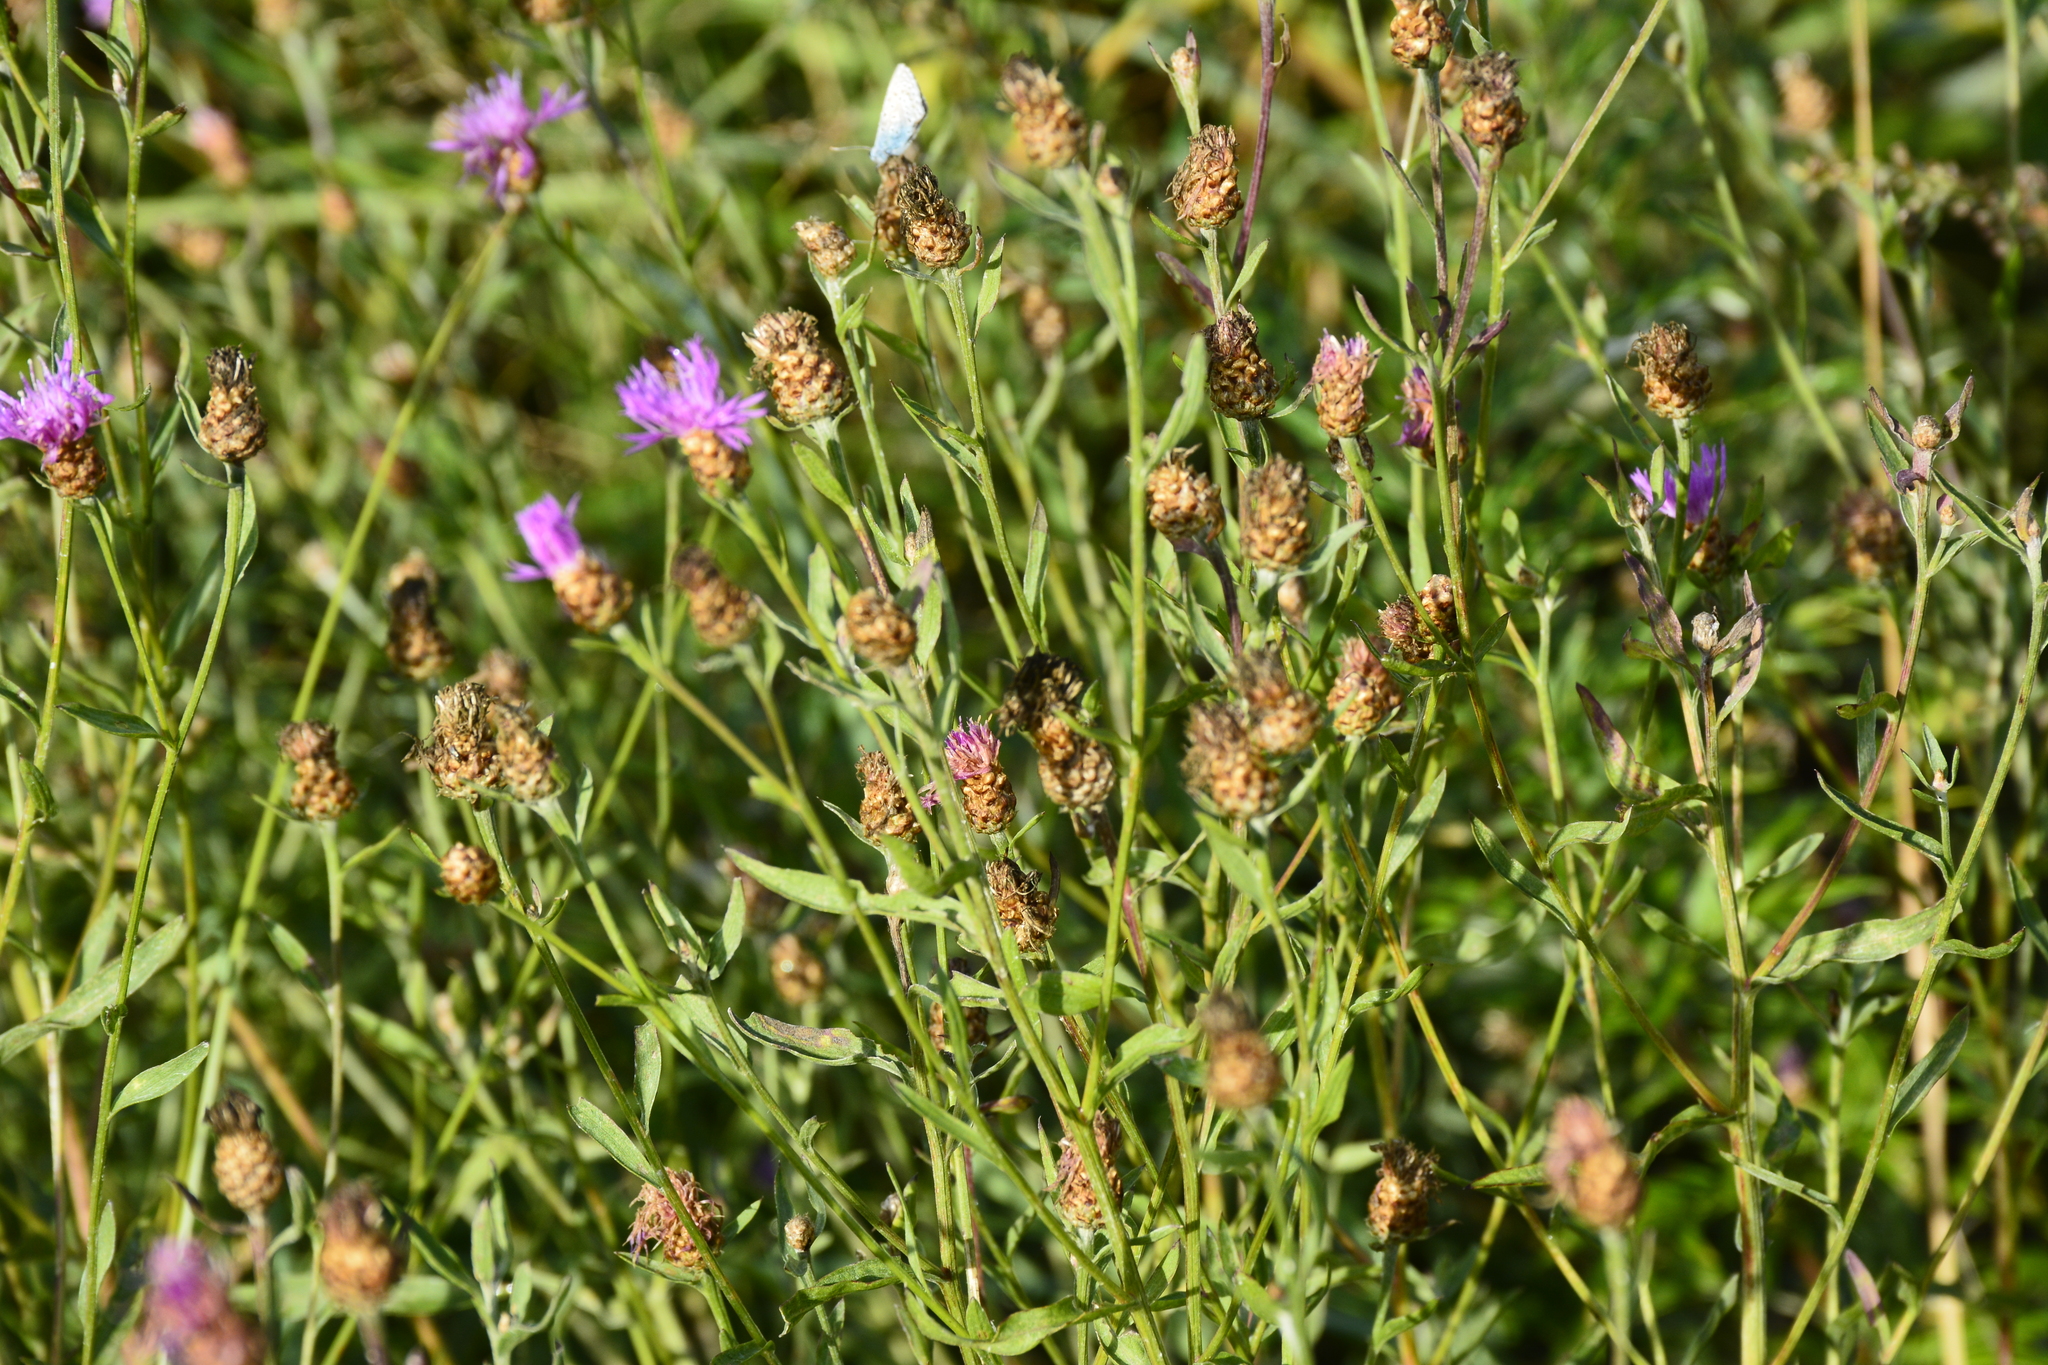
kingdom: Plantae
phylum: Tracheophyta
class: Magnoliopsida
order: Asterales
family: Asteraceae
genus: Centaurea
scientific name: Centaurea jacea
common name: Brown knapweed
